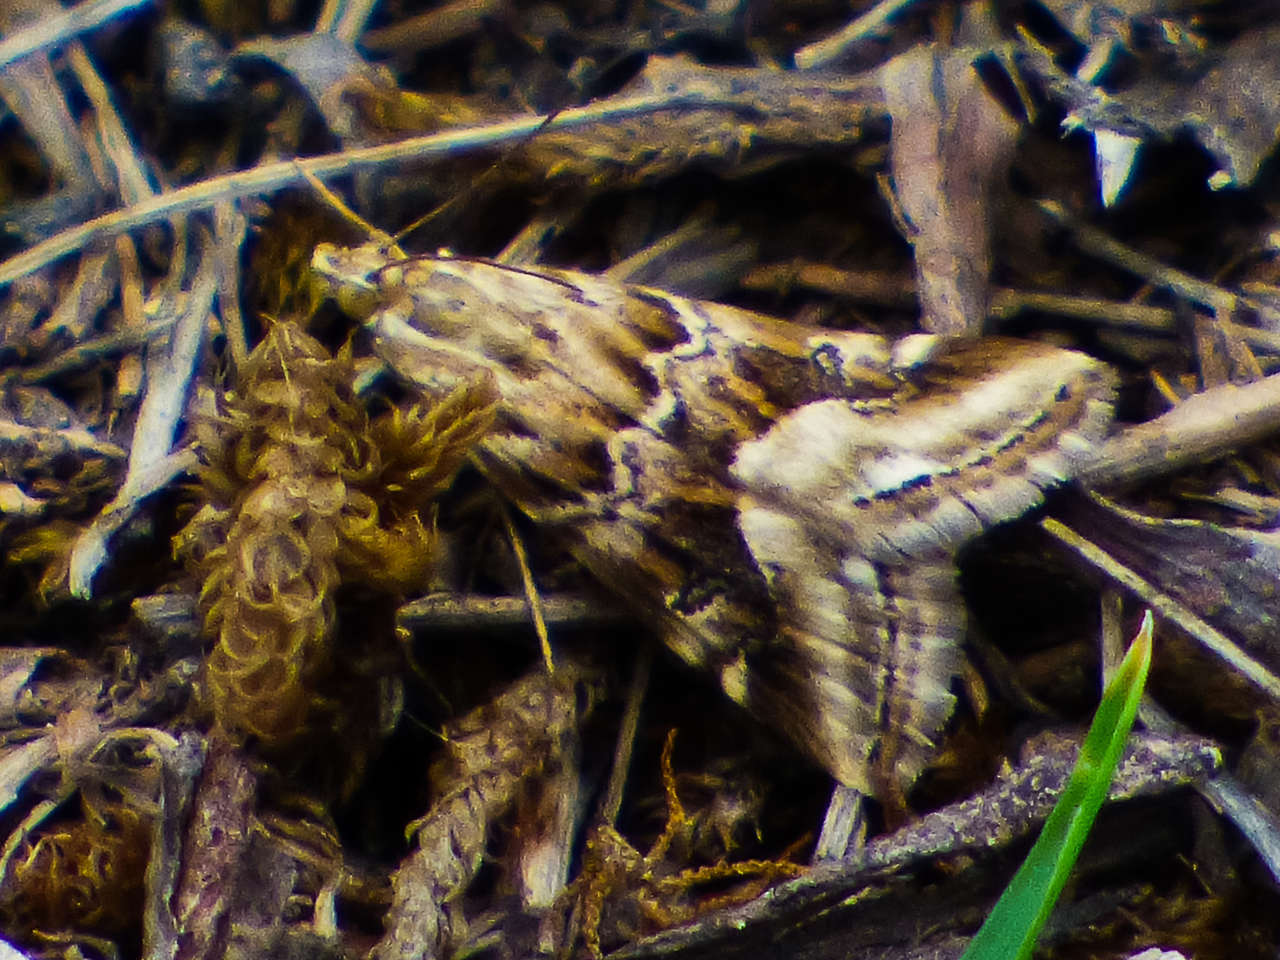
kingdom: Animalia
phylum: Arthropoda
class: Insecta
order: Lepidoptera
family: Crambidae
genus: Hellula
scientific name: Hellula hydralis
